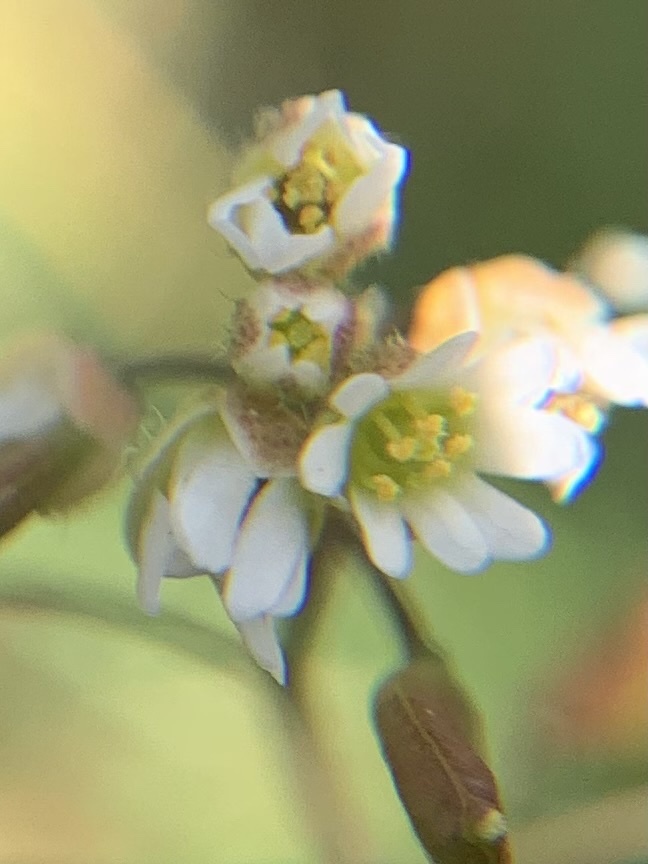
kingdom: Plantae
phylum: Tracheophyta
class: Magnoliopsida
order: Brassicales
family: Brassicaceae
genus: Draba
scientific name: Draba verna
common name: Spring draba
